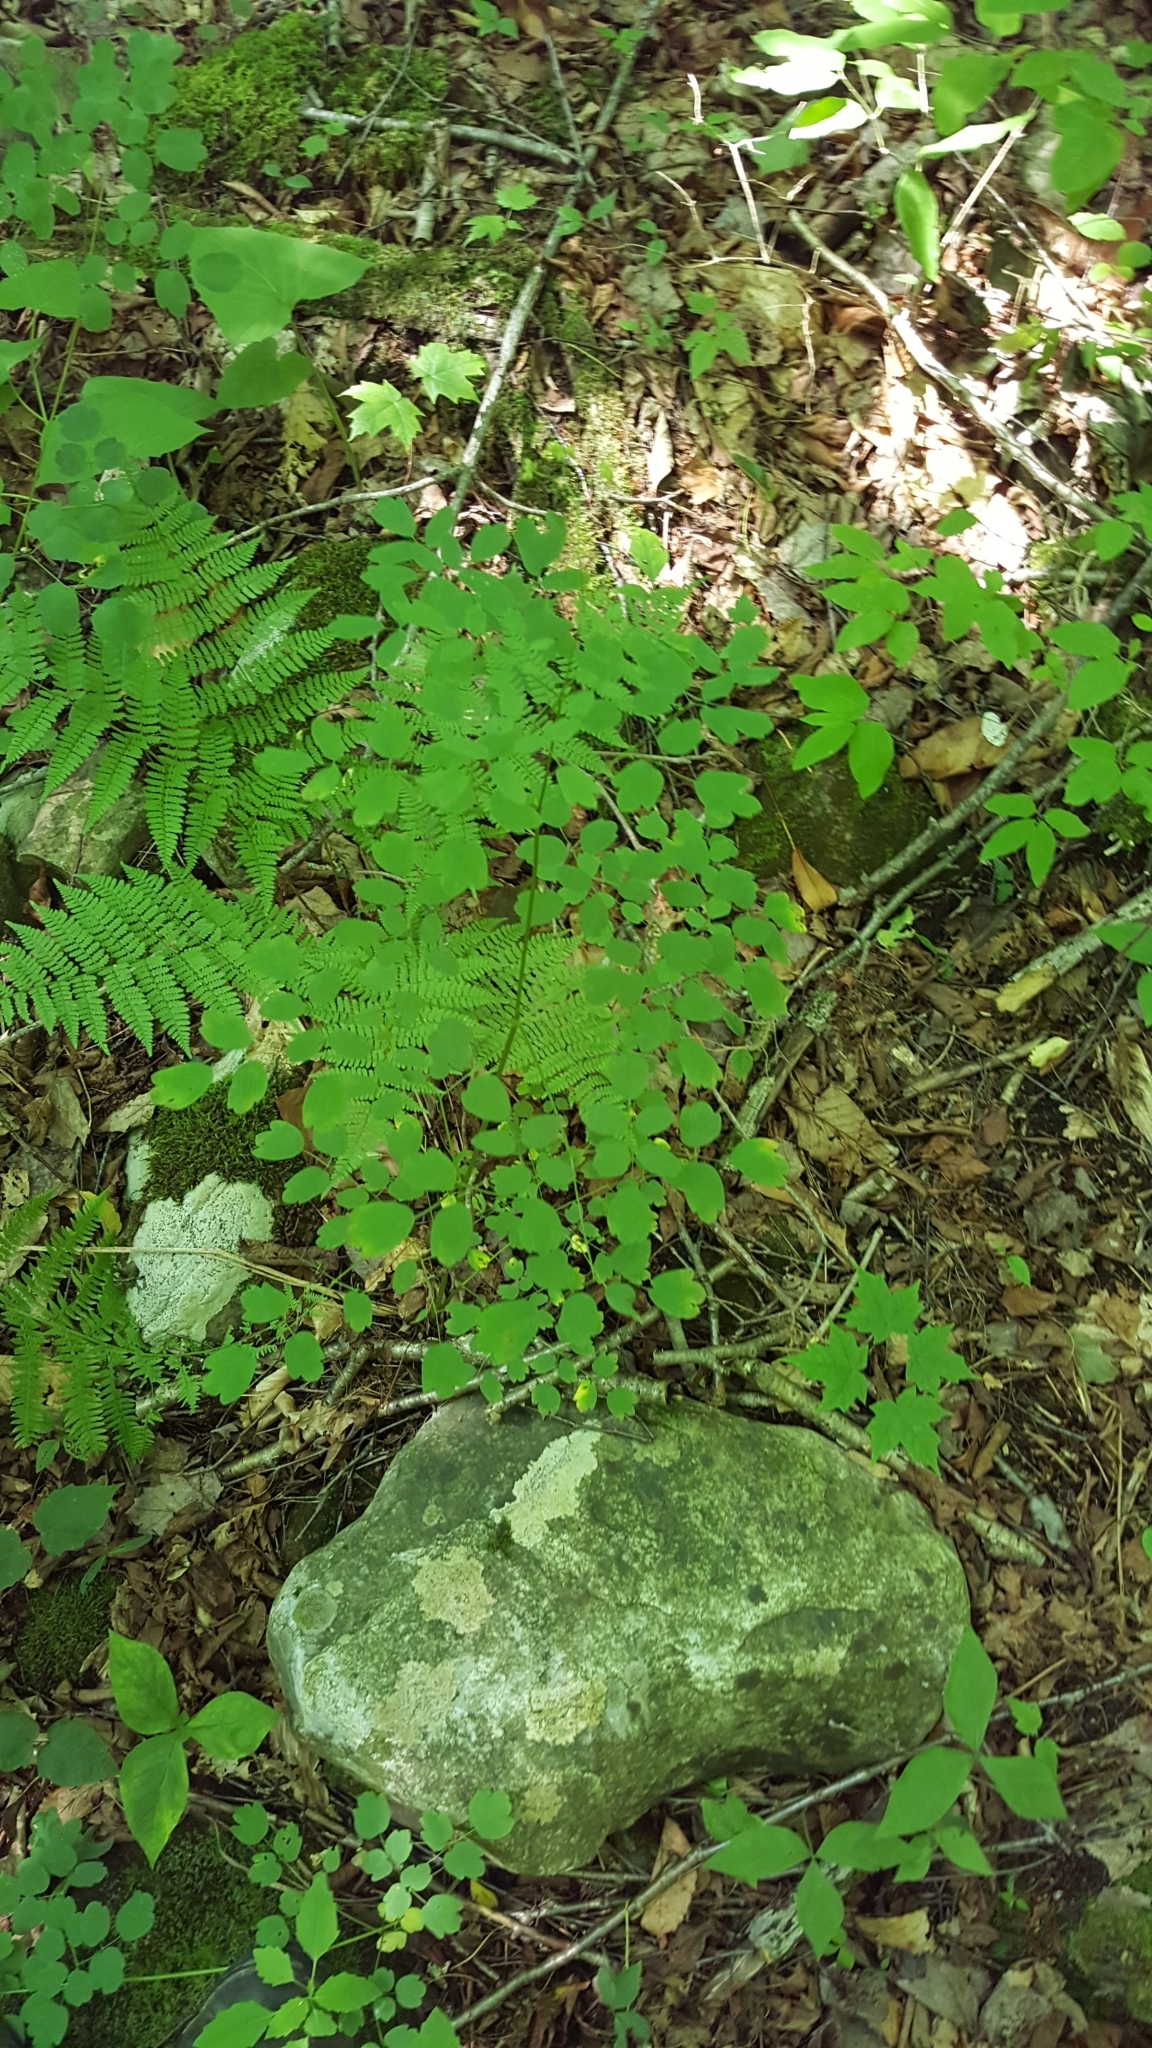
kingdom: Plantae
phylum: Tracheophyta
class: Magnoliopsida
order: Ranunculales
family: Ranunculaceae
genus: Thalictrum
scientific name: Thalictrum pubescens
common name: King-of-the-meadow
